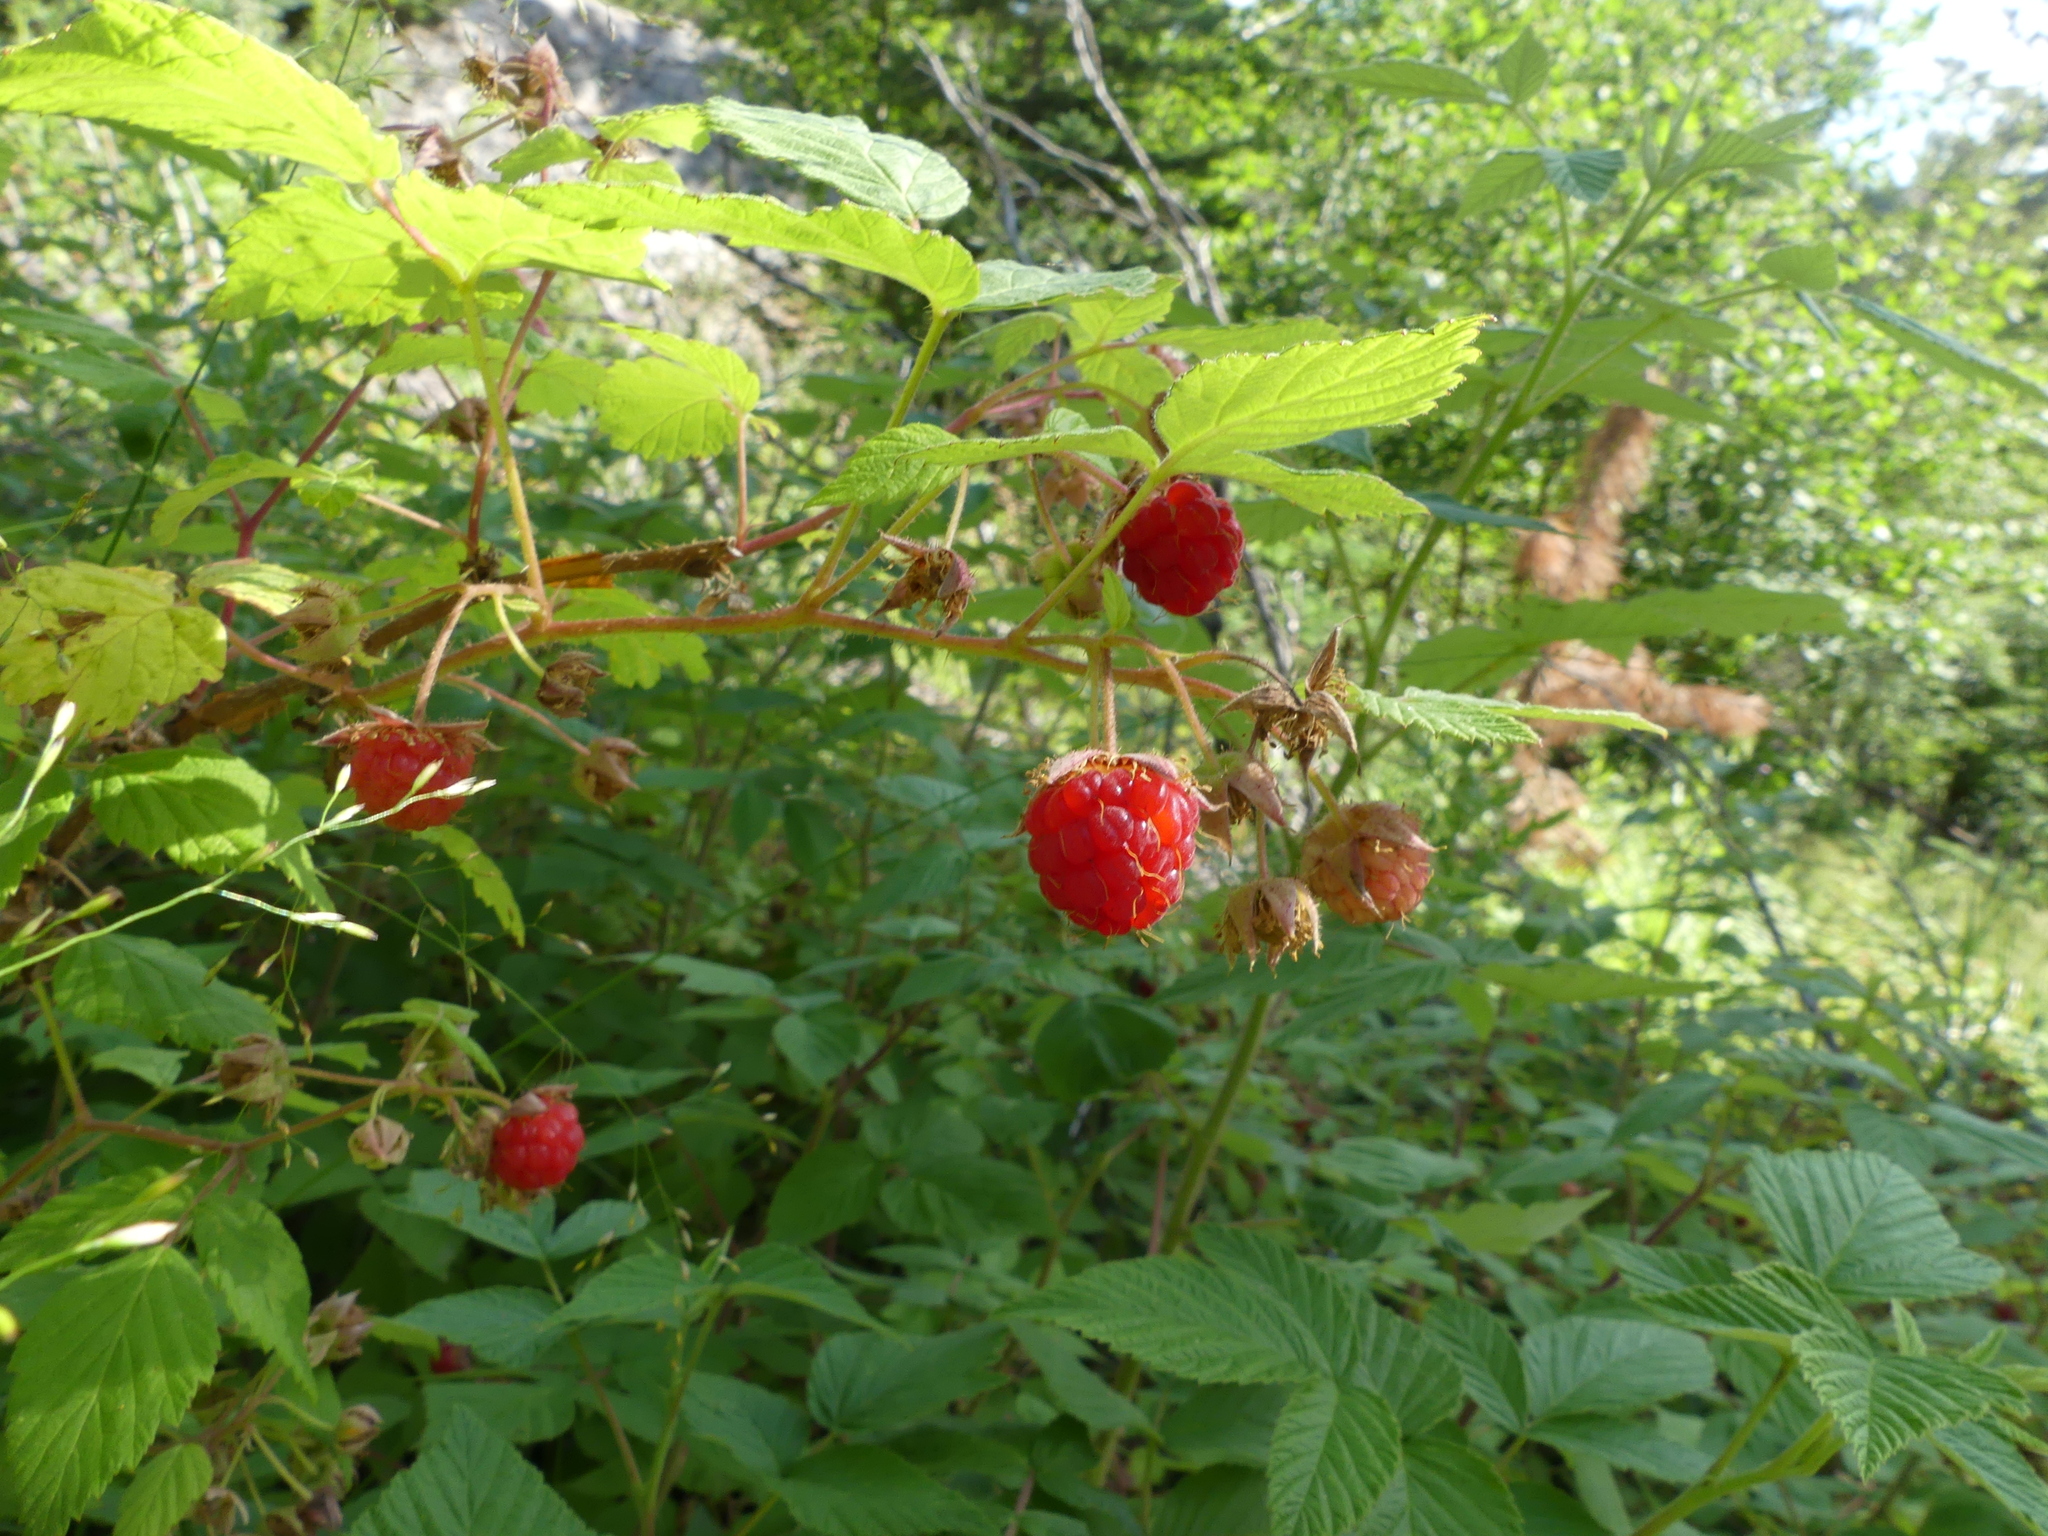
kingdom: Plantae
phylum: Tracheophyta
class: Magnoliopsida
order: Rosales
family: Rosaceae
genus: Rubus
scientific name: Rubus idaeus
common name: Raspberry
